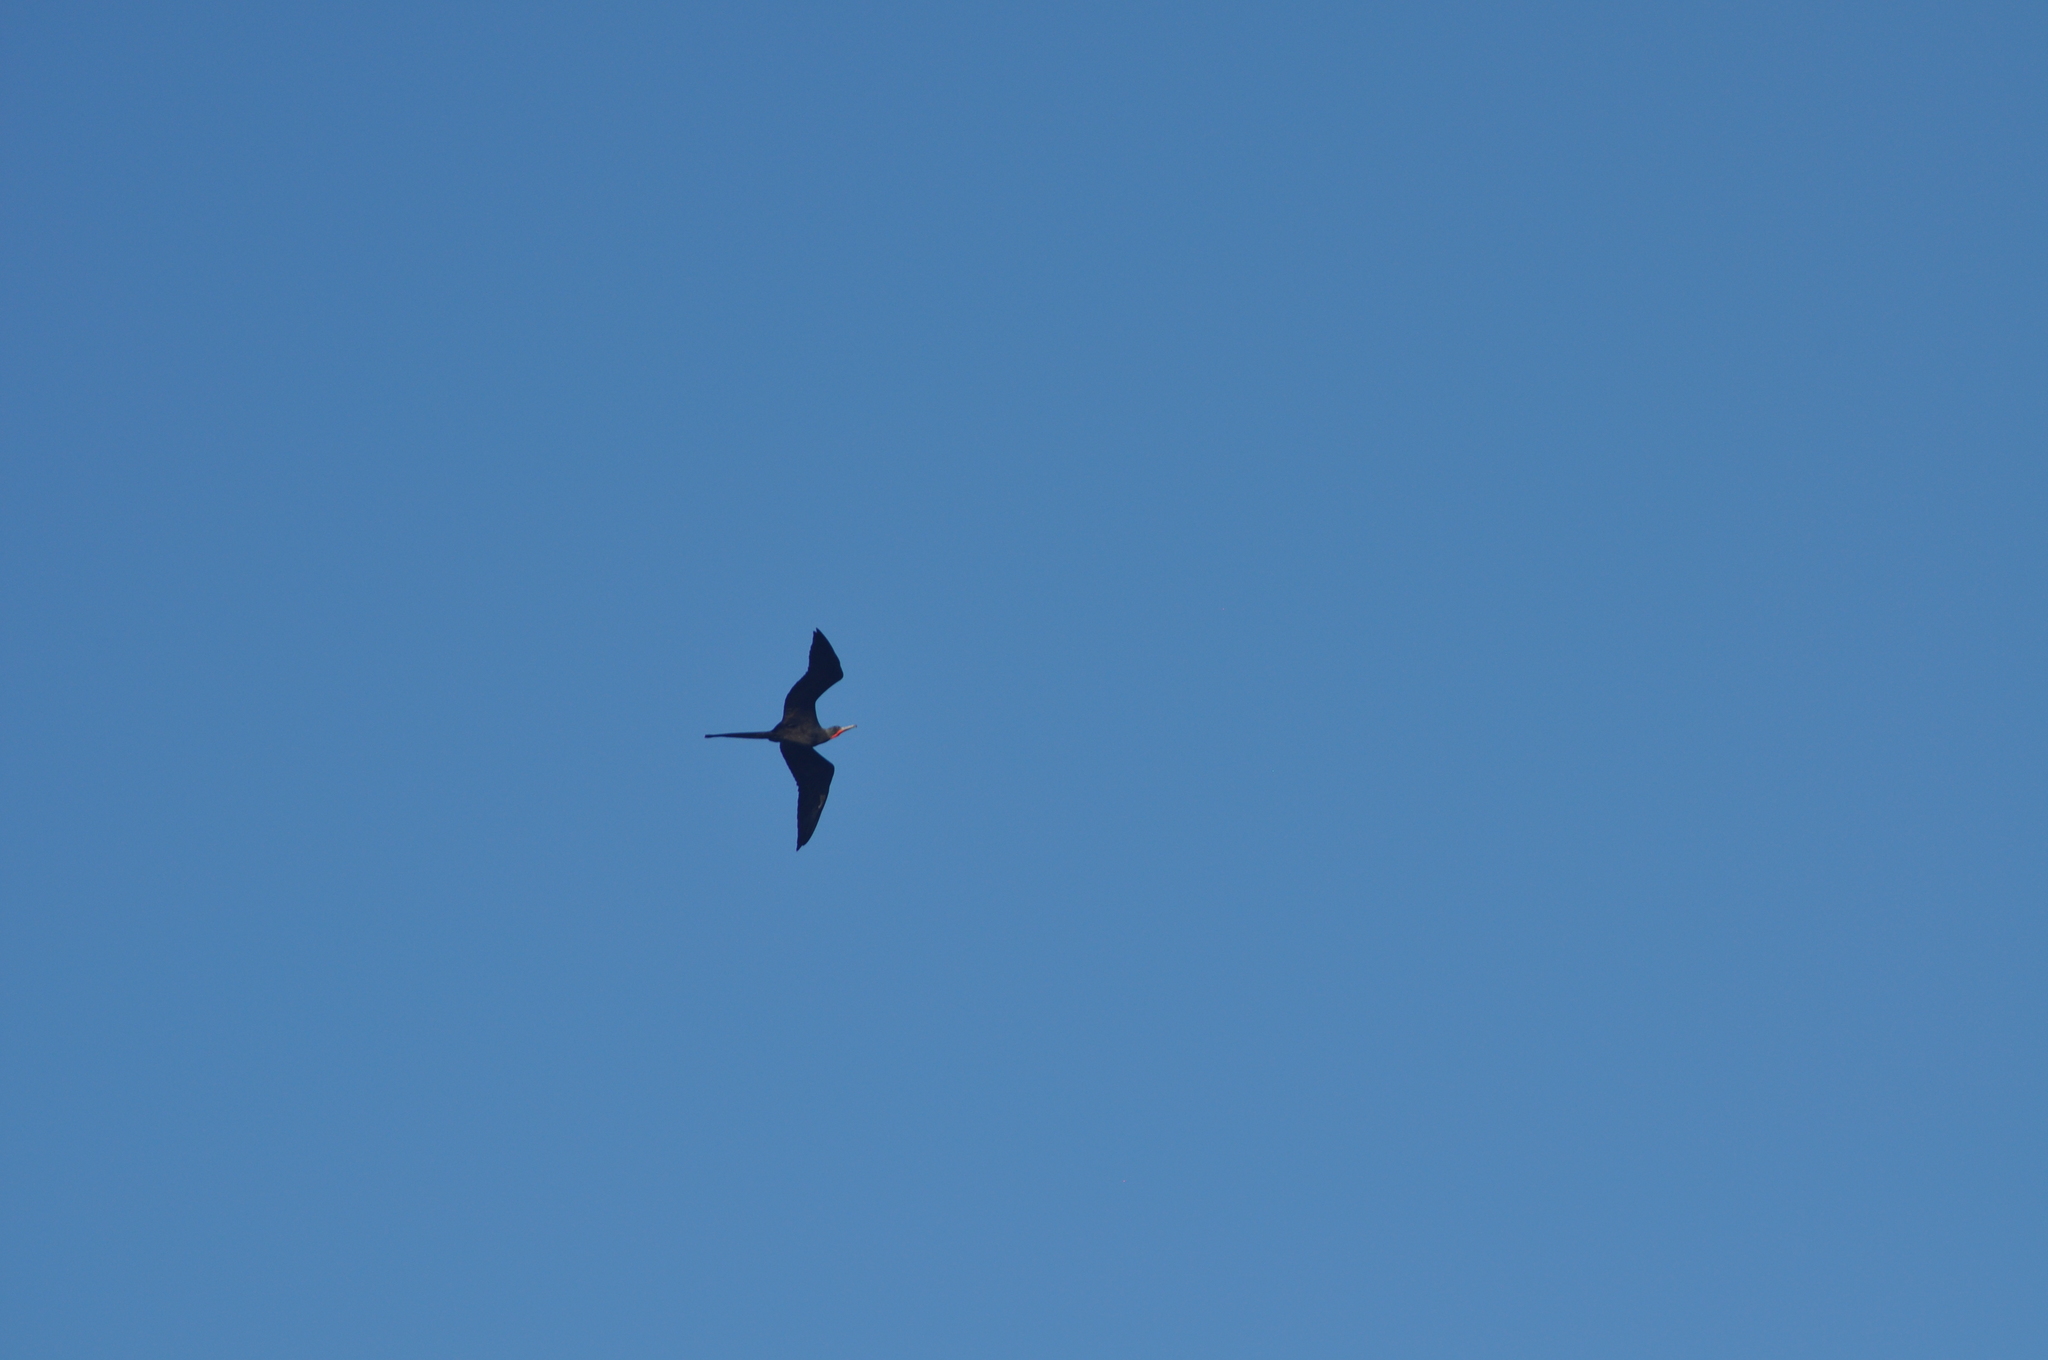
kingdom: Animalia
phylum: Chordata
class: Aves
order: Suliformes
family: Fregatidae
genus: Fregata
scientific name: Fregata magnificens
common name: Magnificent frigatebird
